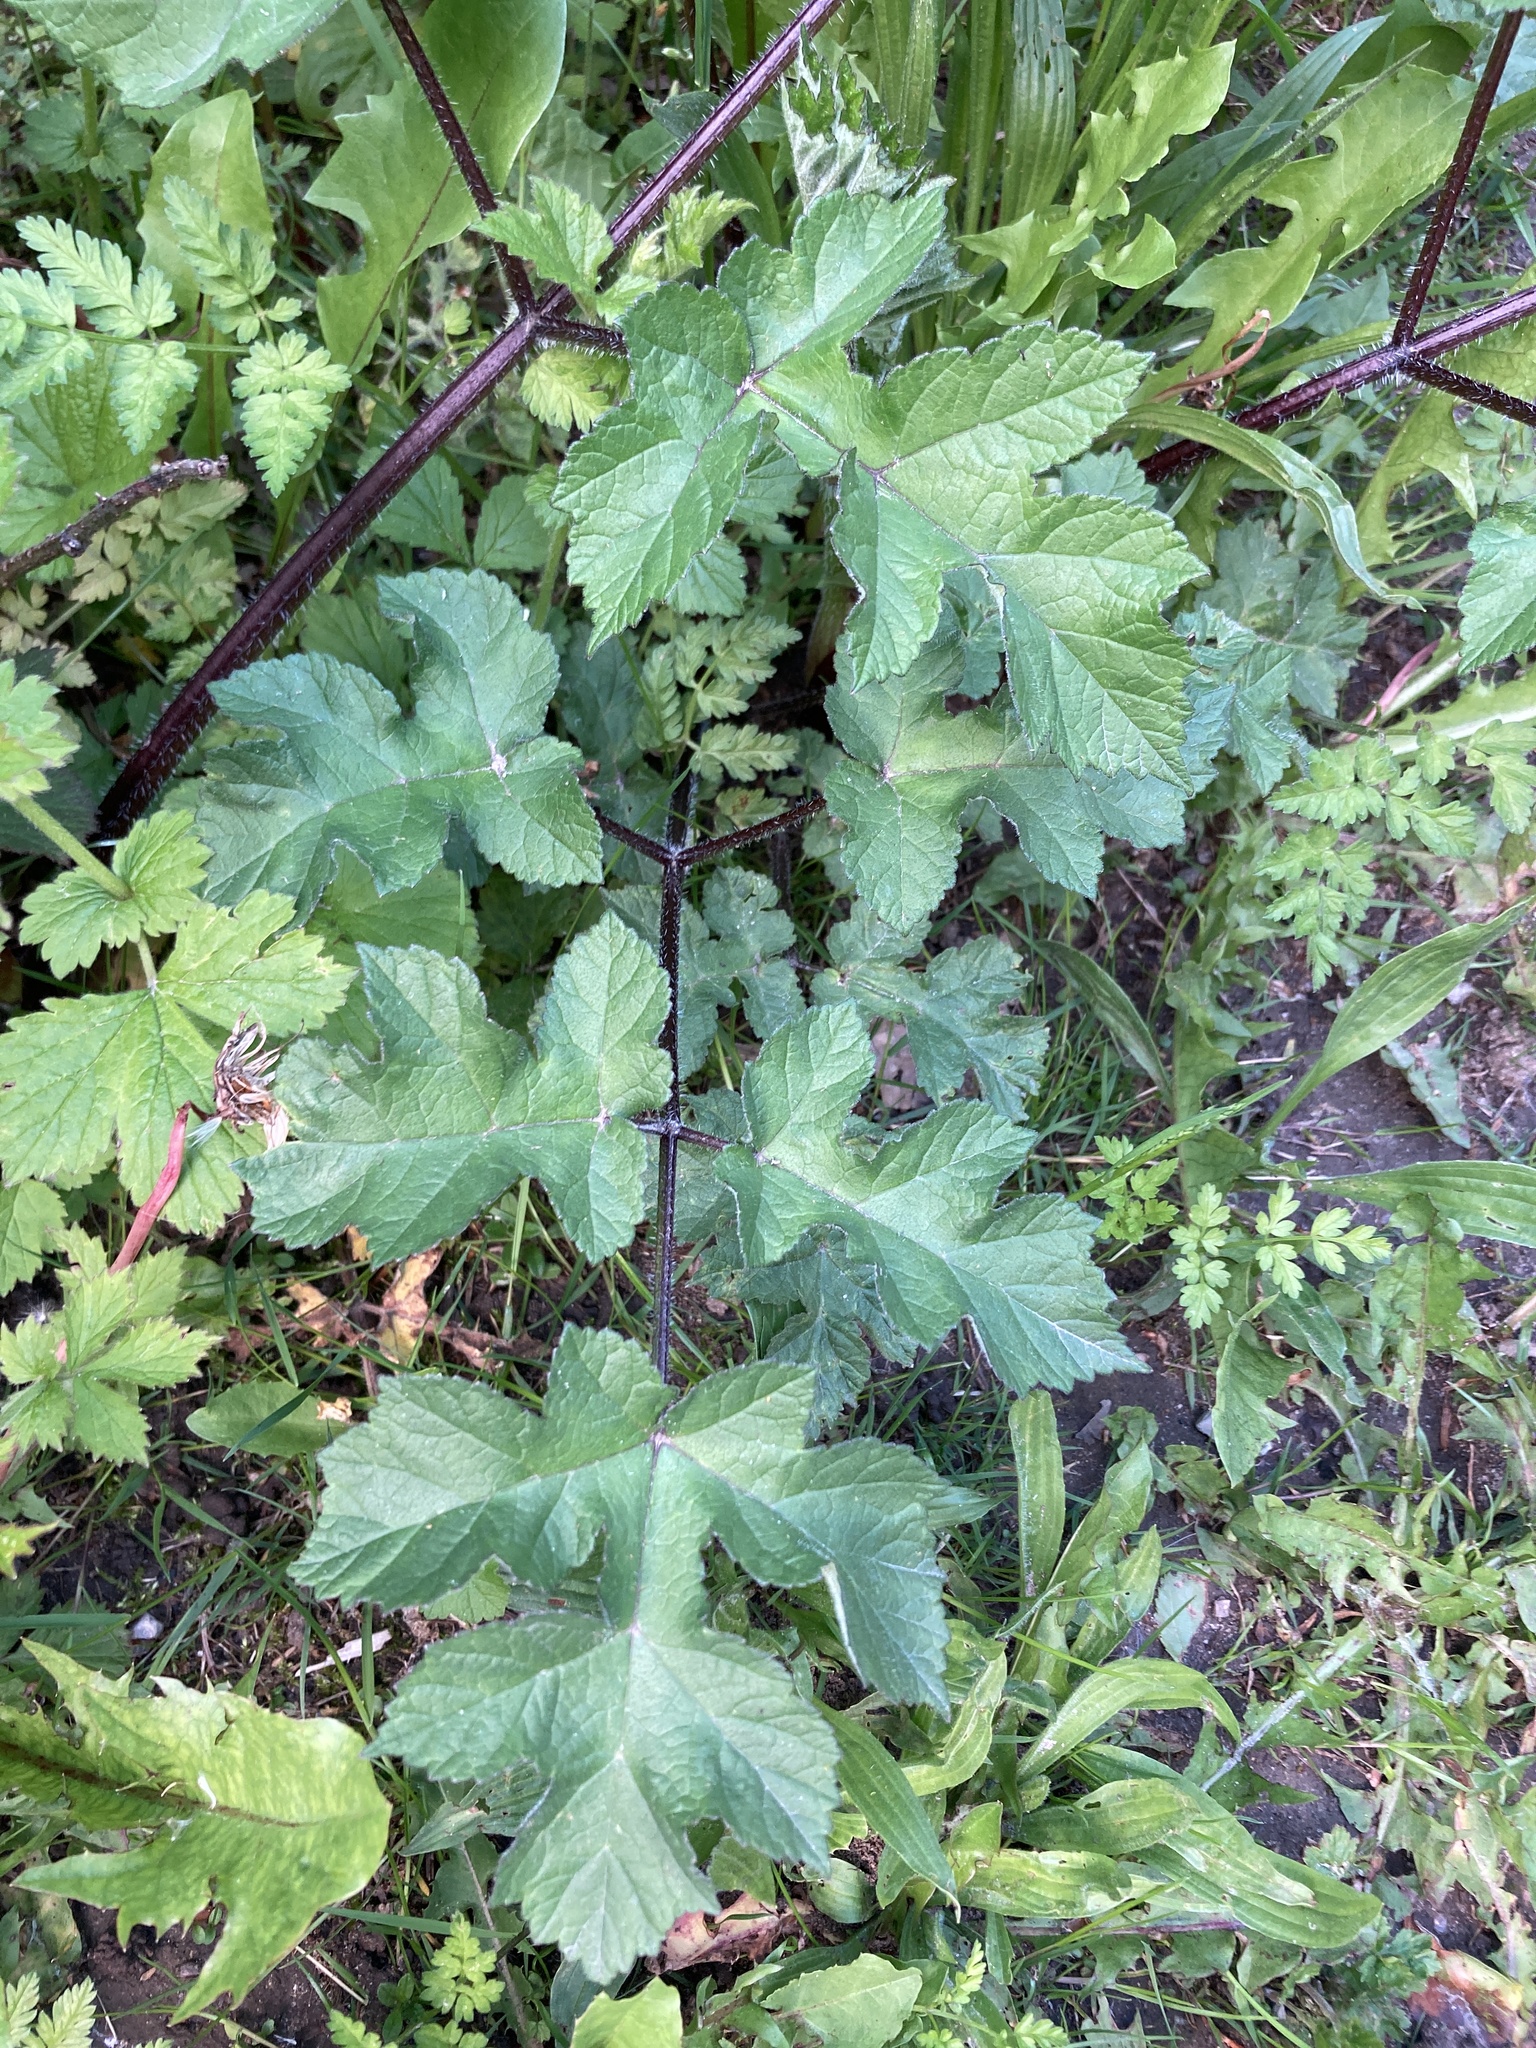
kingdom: Plantae
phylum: Tracheophyta
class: Magnoliopsida
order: Apiales
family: Apiaceae
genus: Heracleum
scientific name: Heracleum sphondylium
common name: Hogweed
